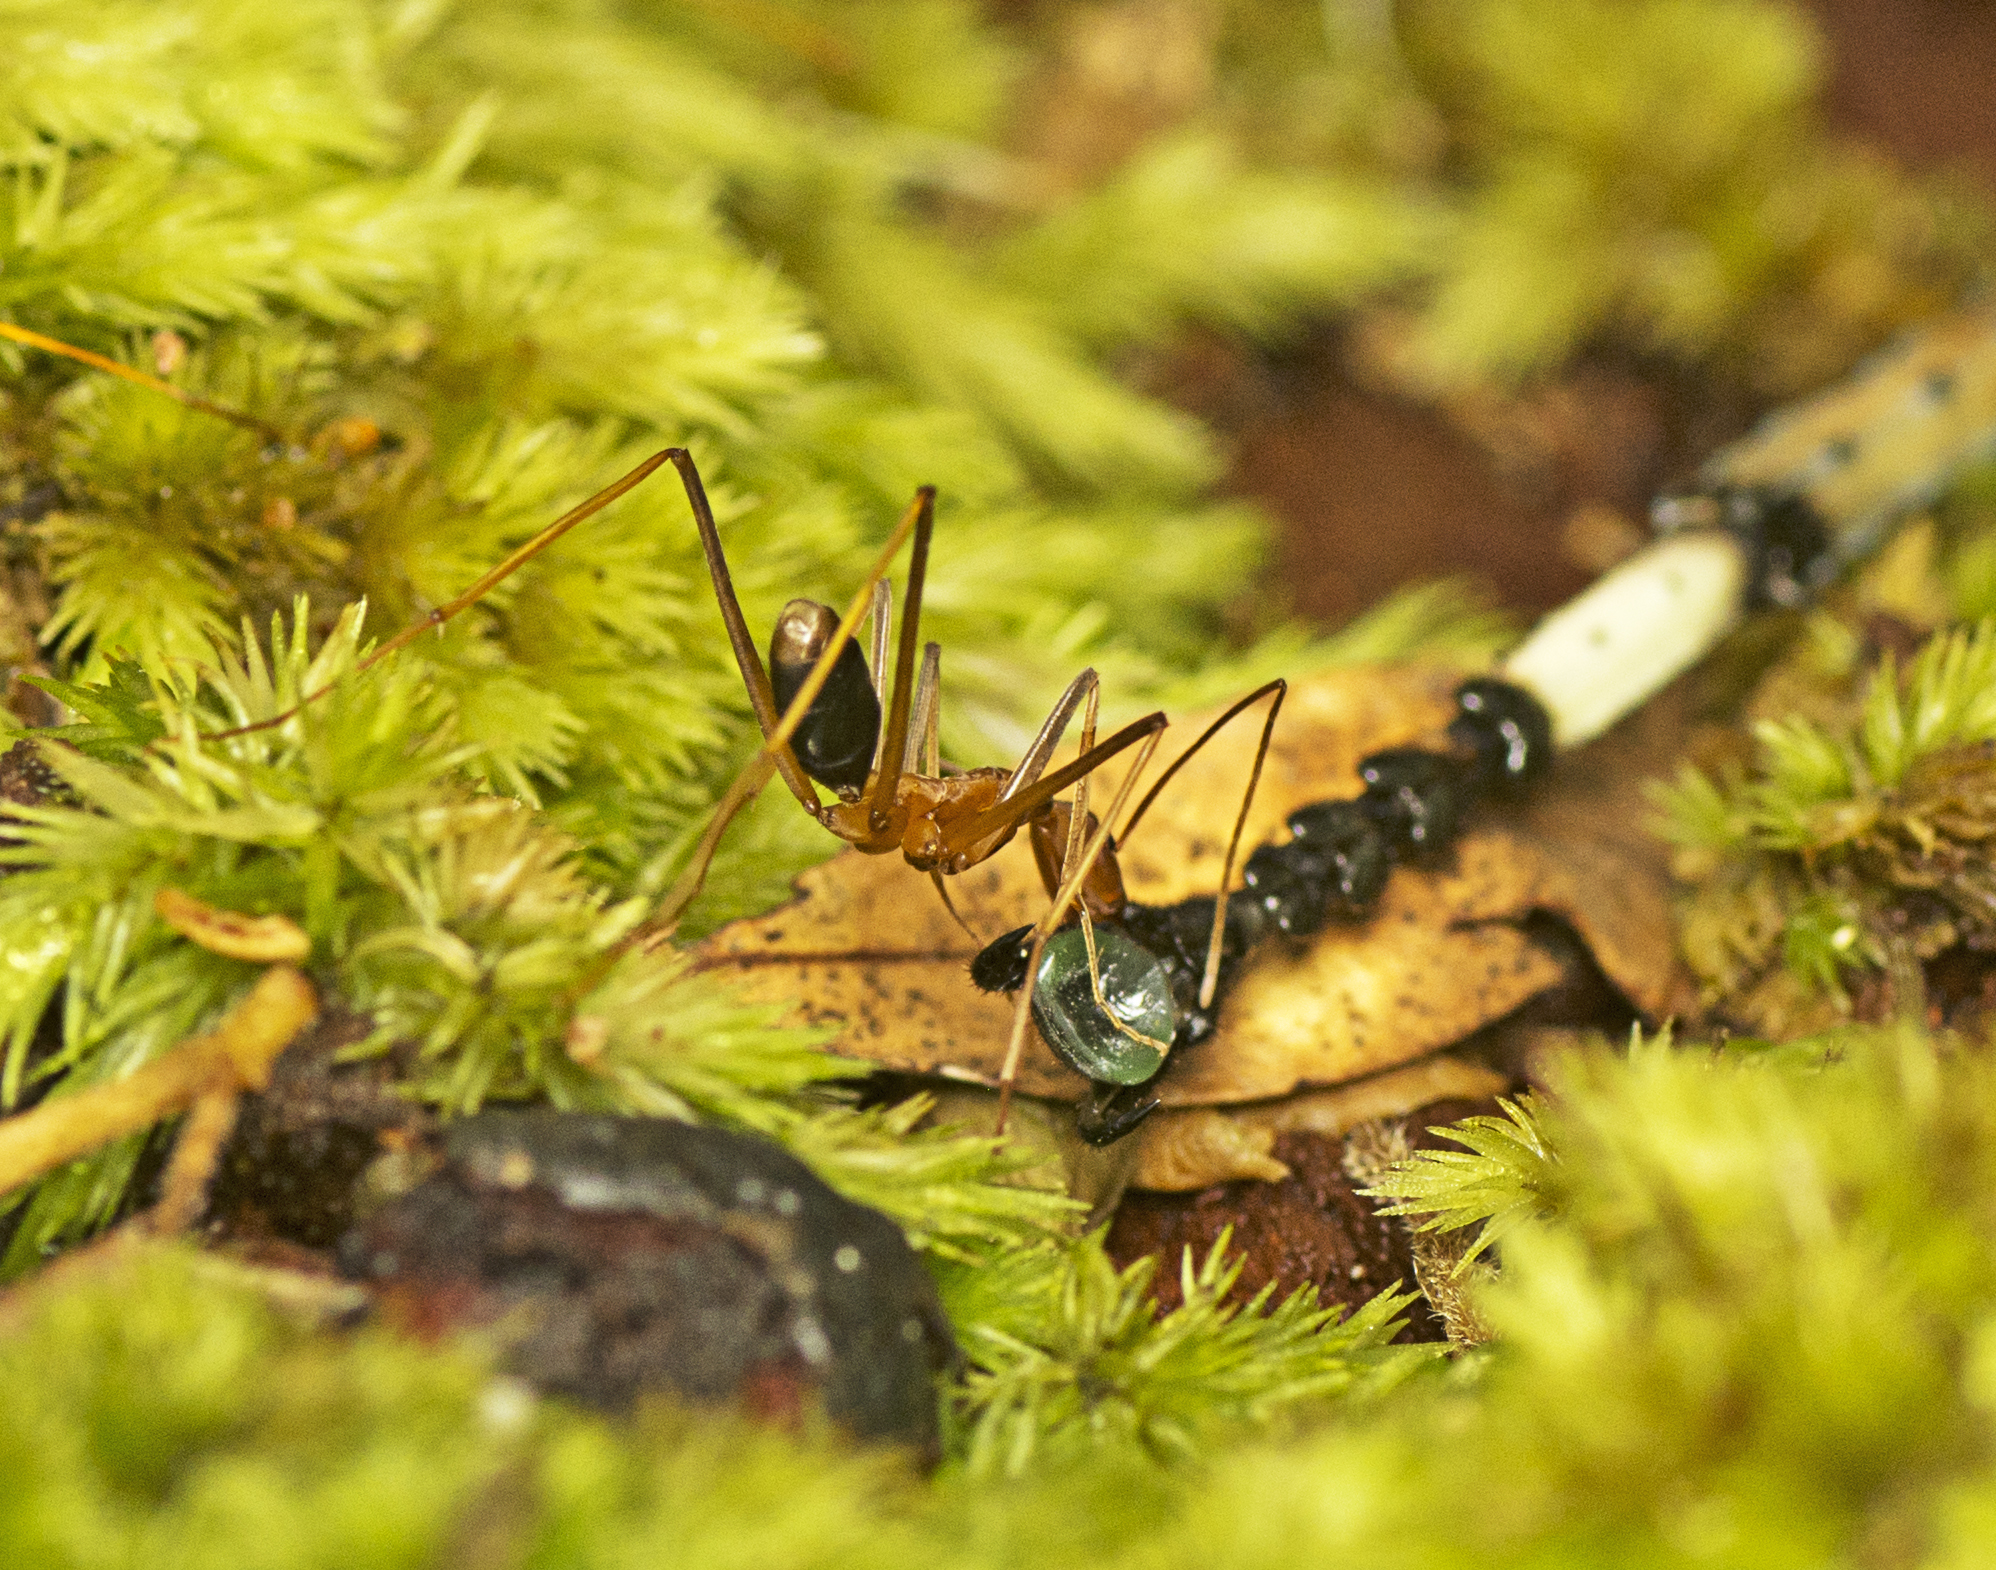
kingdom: Animalia
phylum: Arthropoda
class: Insecta
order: Hymenoptera
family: Formicidae
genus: Leptomyrmex
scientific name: Leptomyrmex rufipes
